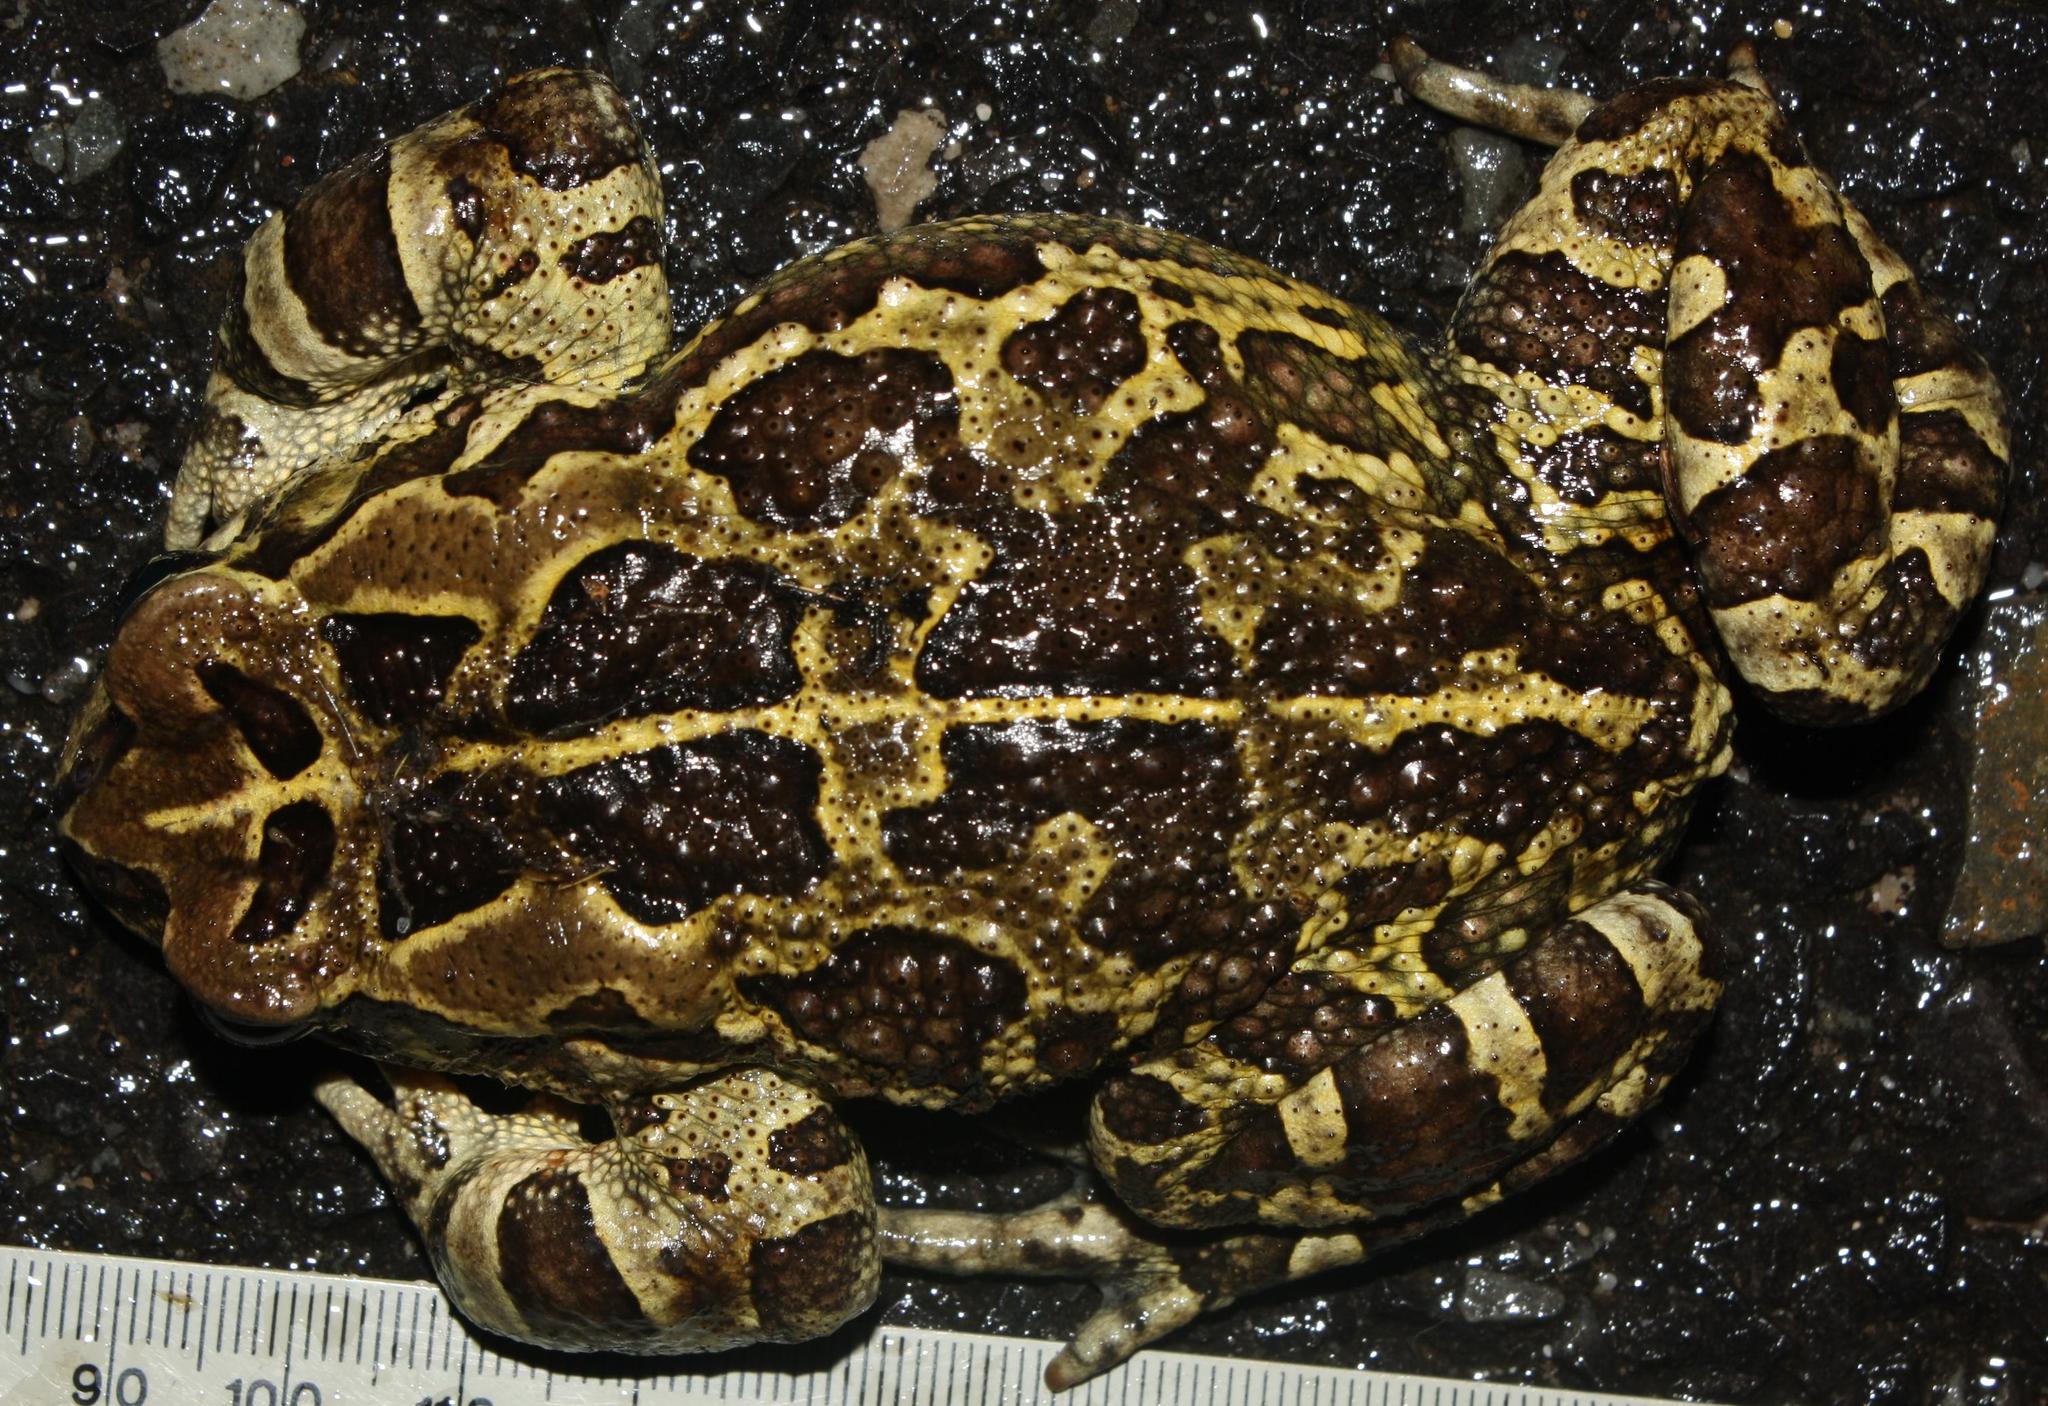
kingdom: Animalia
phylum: Chordata
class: Amphibia
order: Anura
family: Bufonidae
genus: Sclerophrys
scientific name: Sclerophrys pantherina
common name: Panther toad
